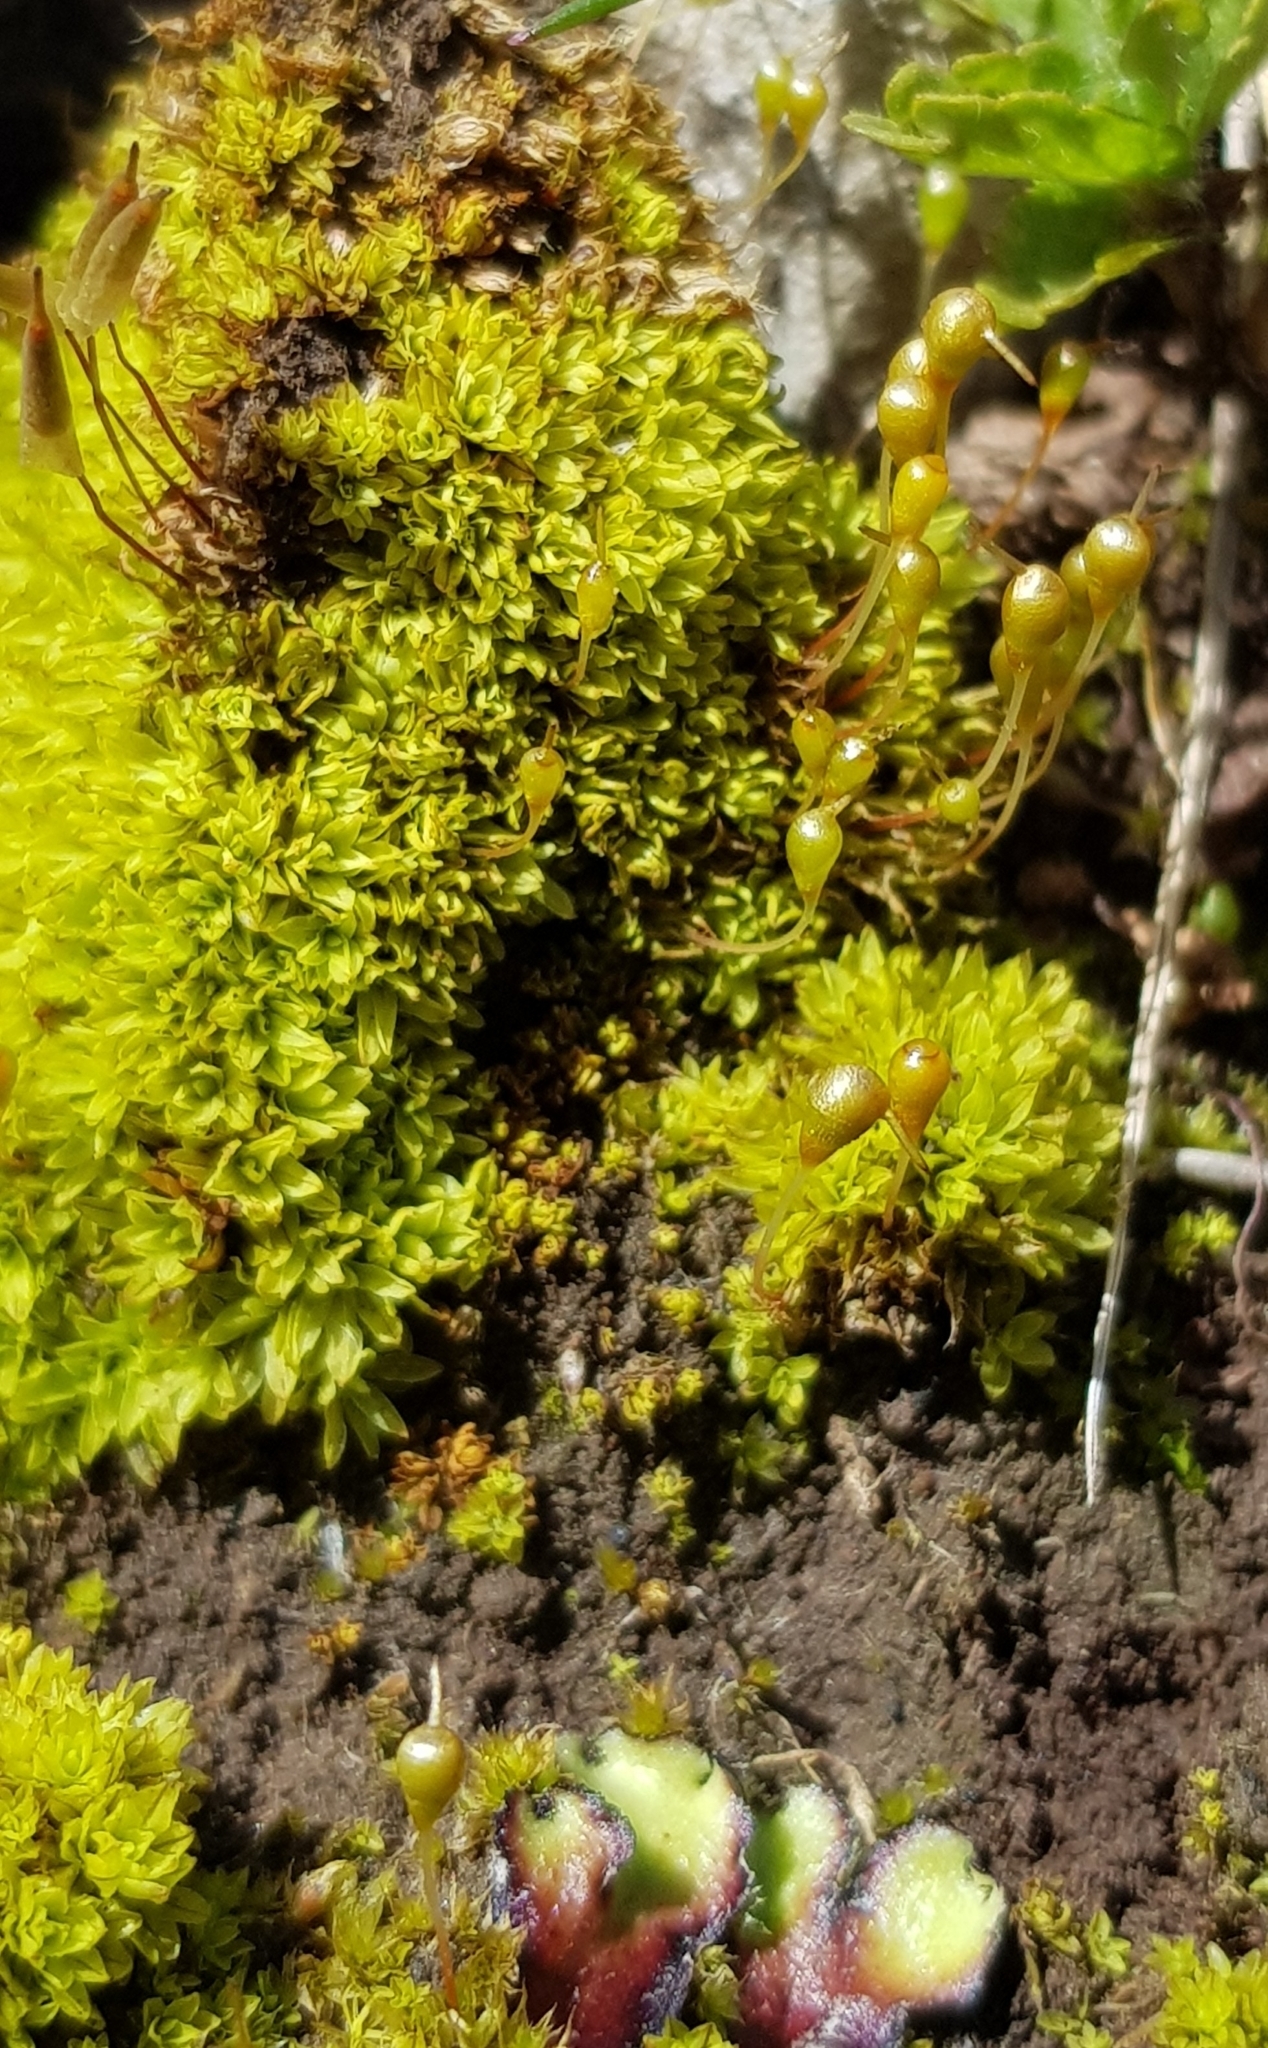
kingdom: Plantae
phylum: Bryophyta
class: Bryopsida
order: Funariales
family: Funariaceae
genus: Entosthodon
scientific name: Entosthodon fascicularis
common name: Hasselquist's hyssop
